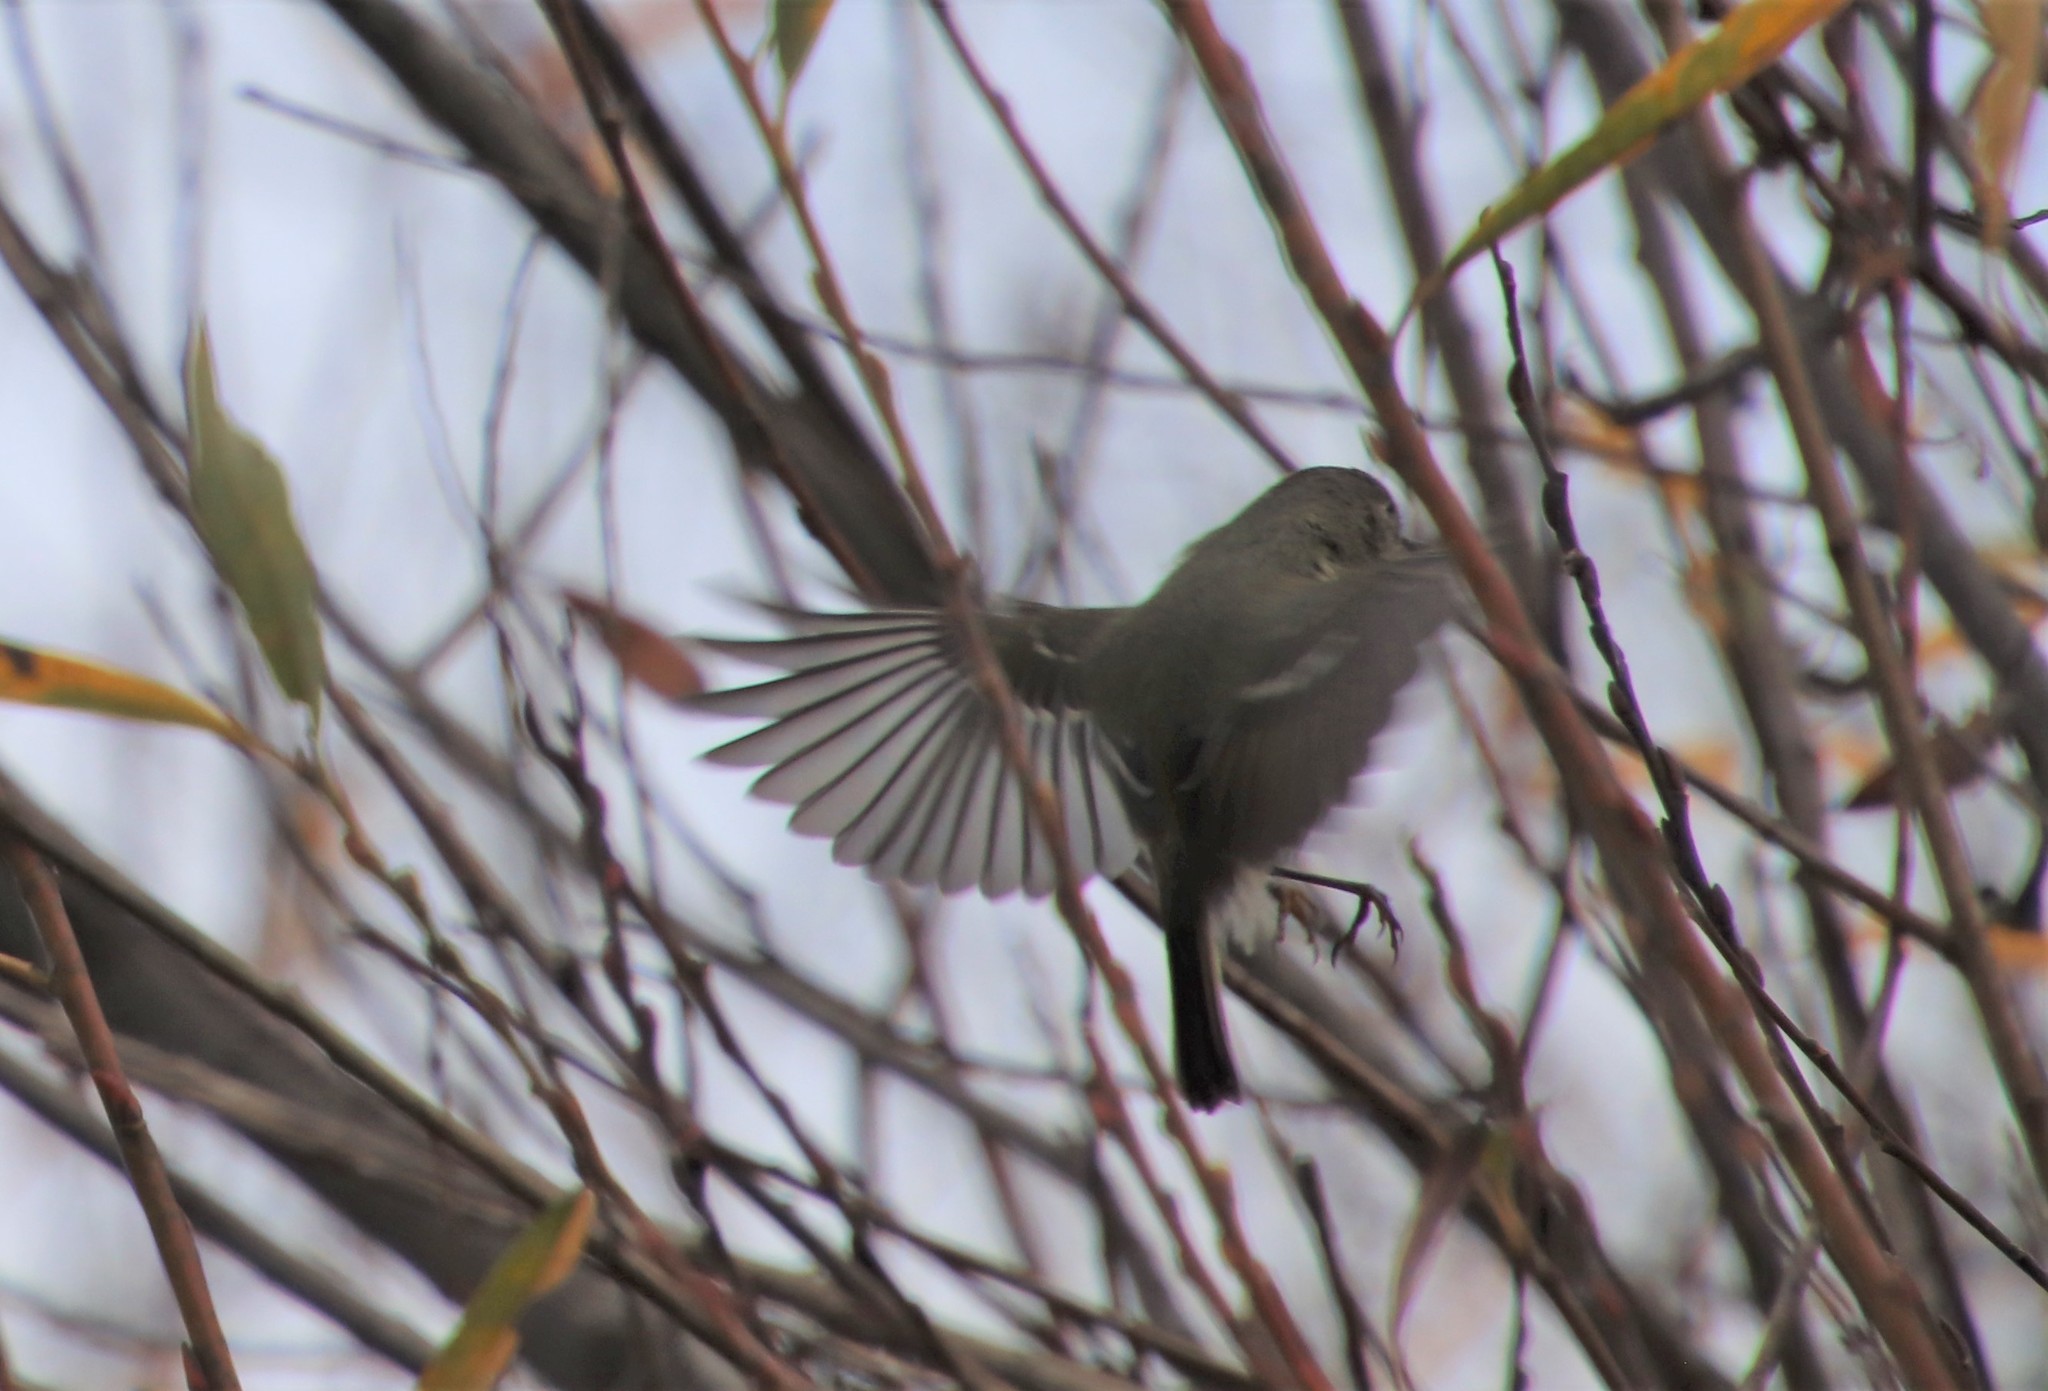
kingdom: Animalia
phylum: Chordata
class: Aves
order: Passeriformes
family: Regulidae
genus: Regulus
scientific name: Regulus calendula
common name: Ruby-crowned kinglet
